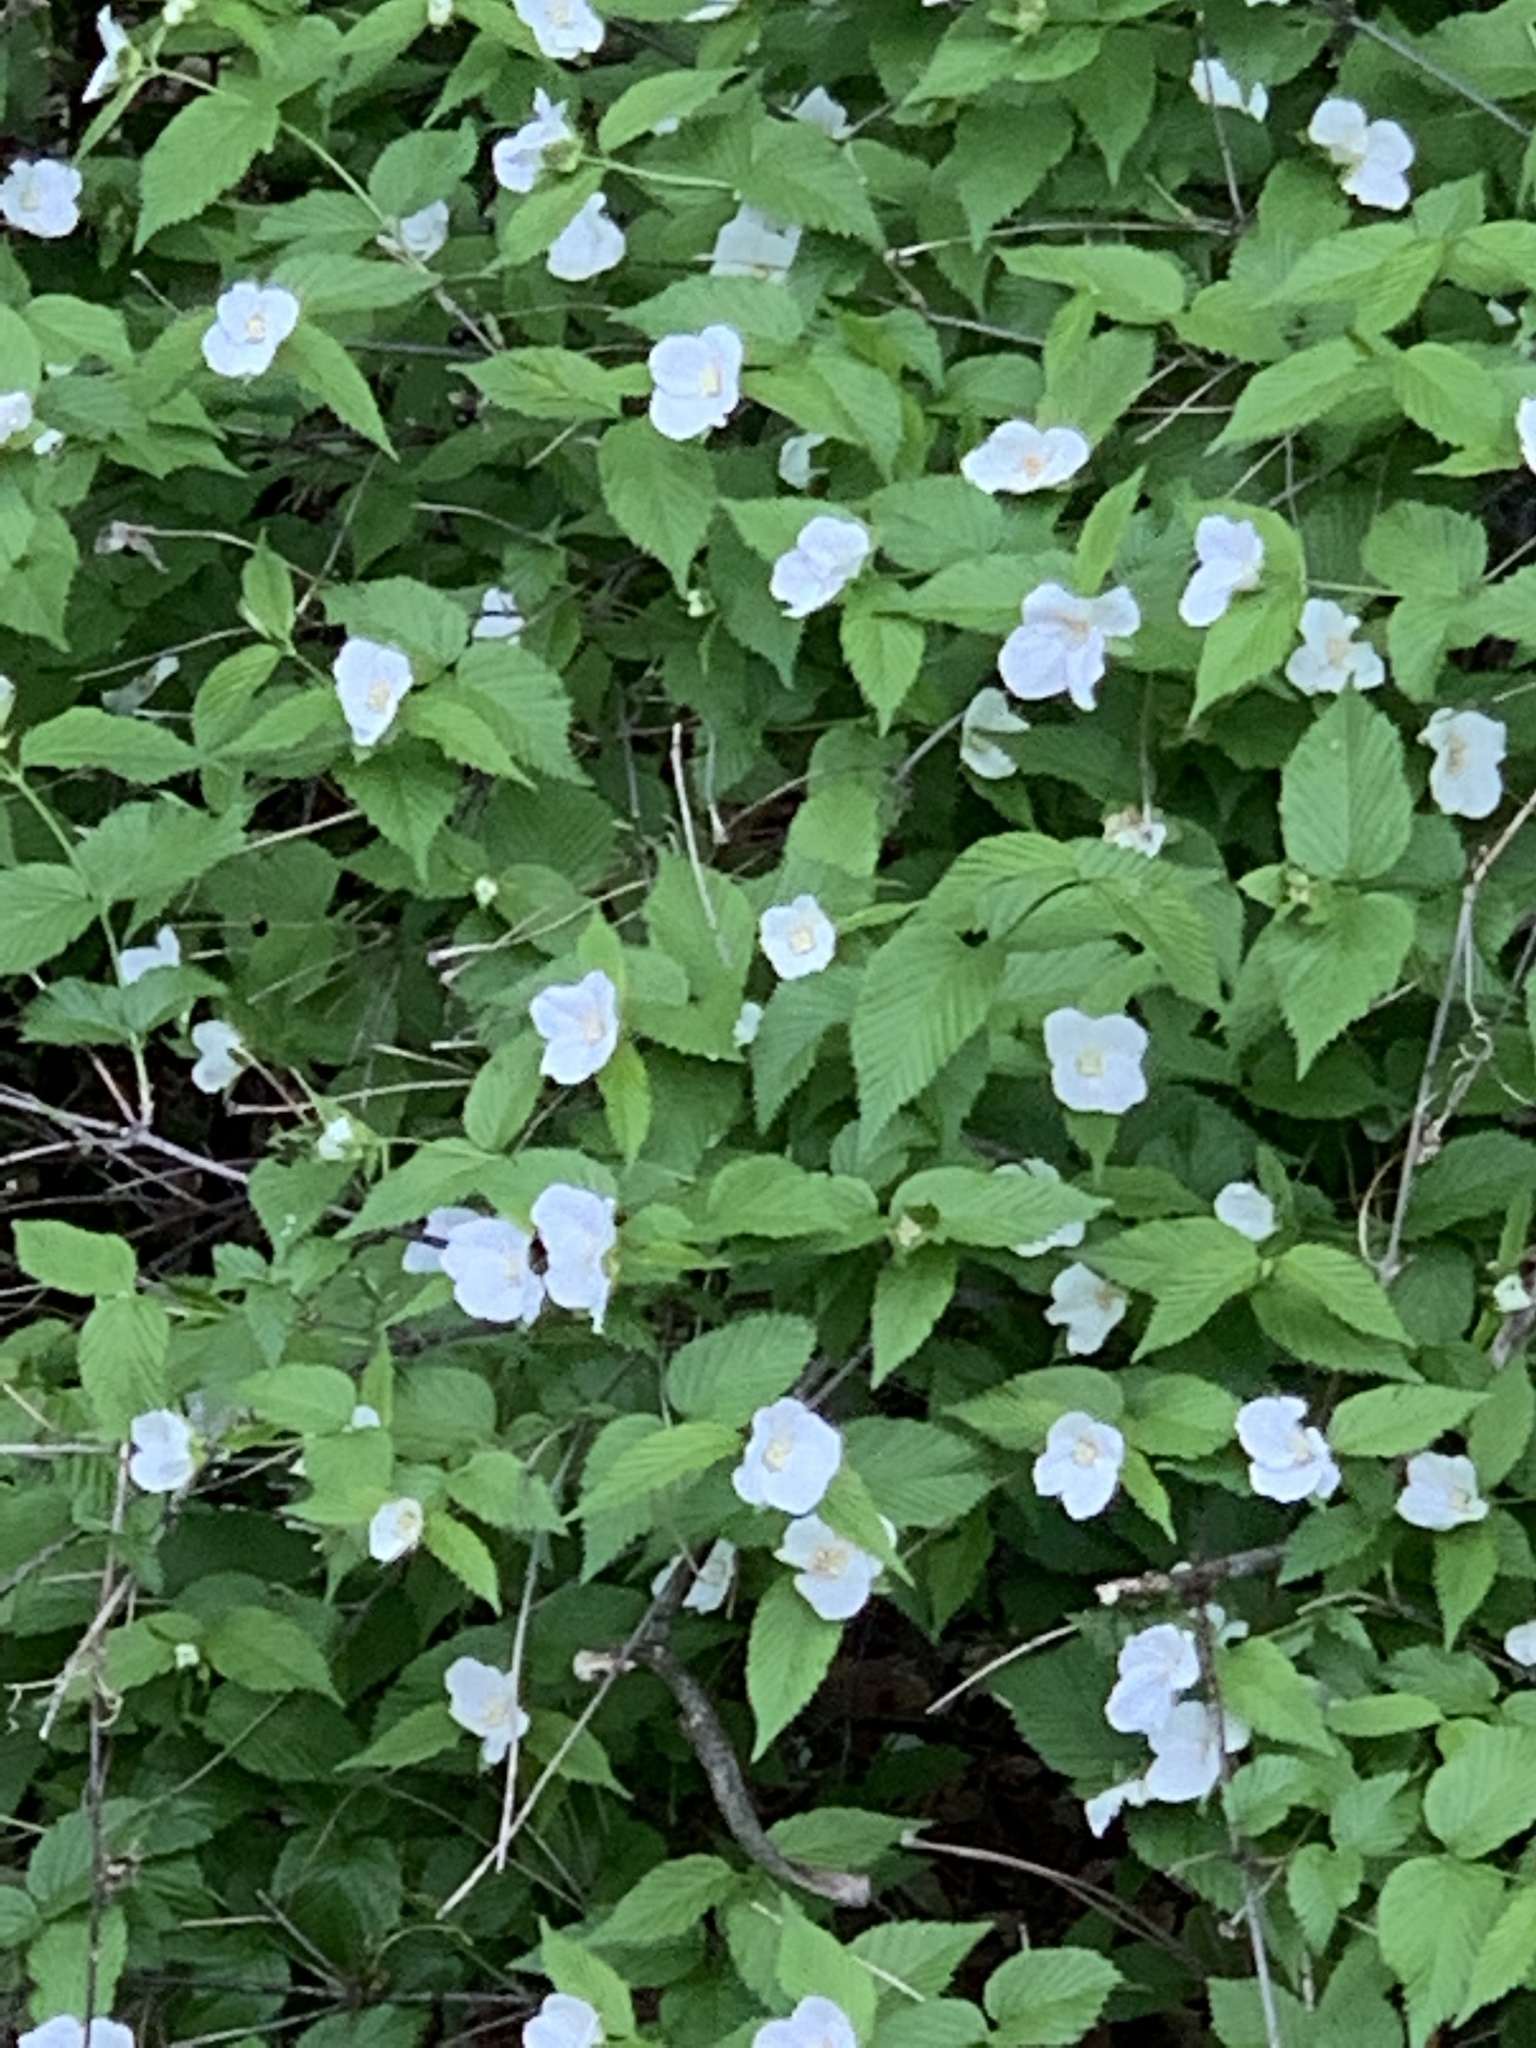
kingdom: Plantae
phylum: Tracheophyta
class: Magnoliopsida
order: Rosales
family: Rosaceae
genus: Rhodotypos
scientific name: Rhodotypos scandens
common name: Jetbead
